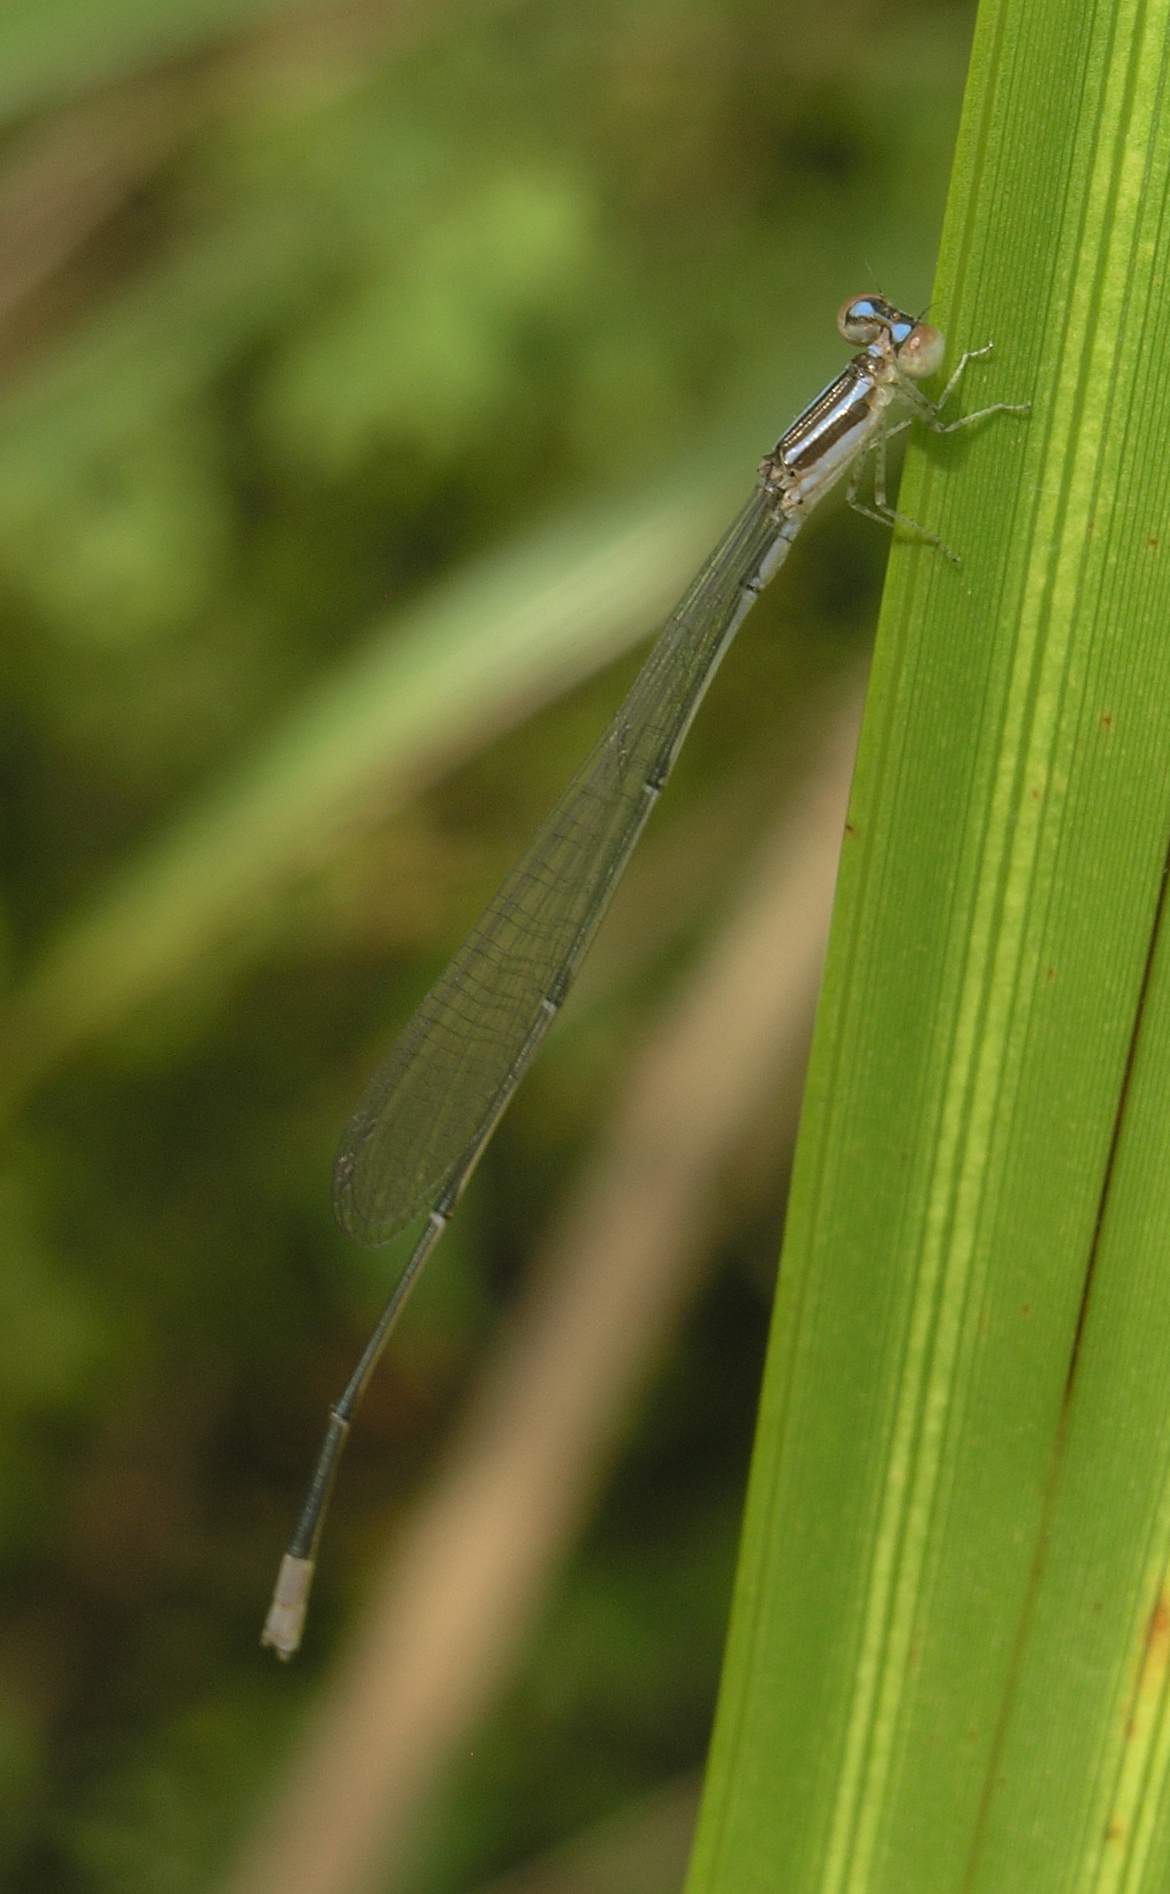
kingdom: Animalia
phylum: Arthropoda
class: Insecta
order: Odonata
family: Coenagrionidae
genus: Aciagrion
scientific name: Aciagrion hisopa
